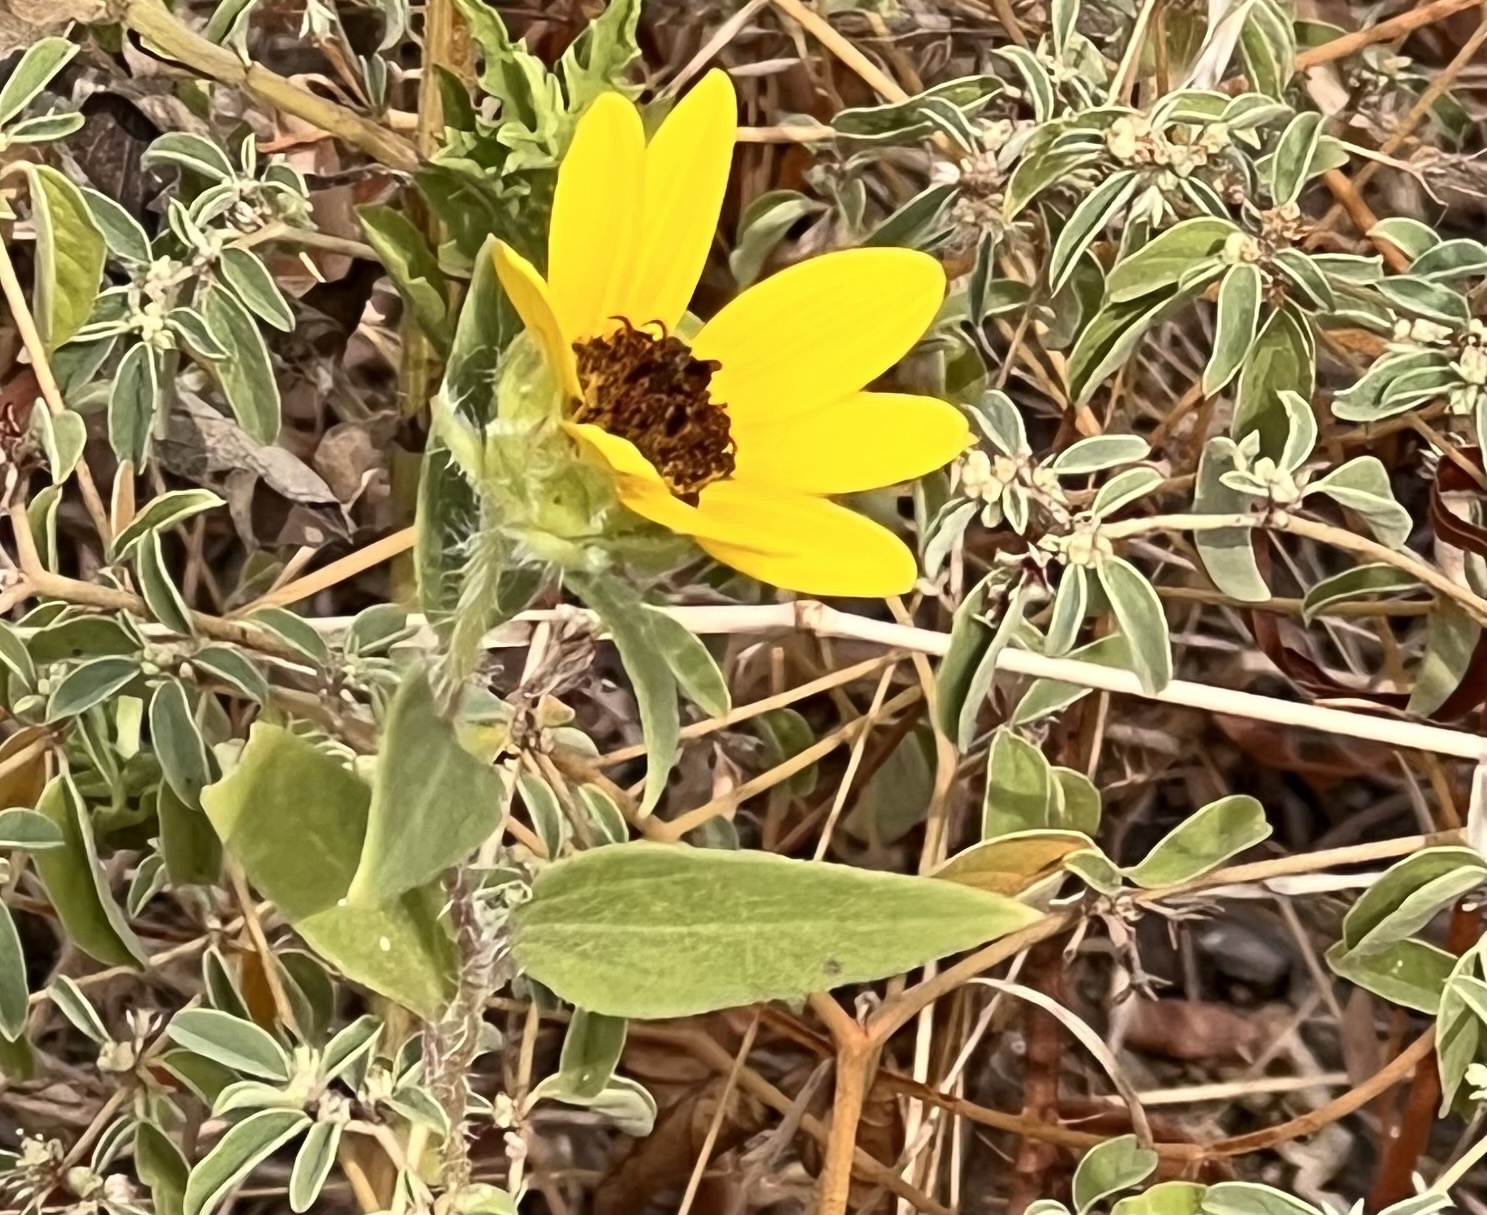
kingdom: Plantae
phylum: Tracheophyta
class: Magnoliopsida
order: Asterales
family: Asteraceae
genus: Helianthus
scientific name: Helianthus annuus
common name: Sunflower
